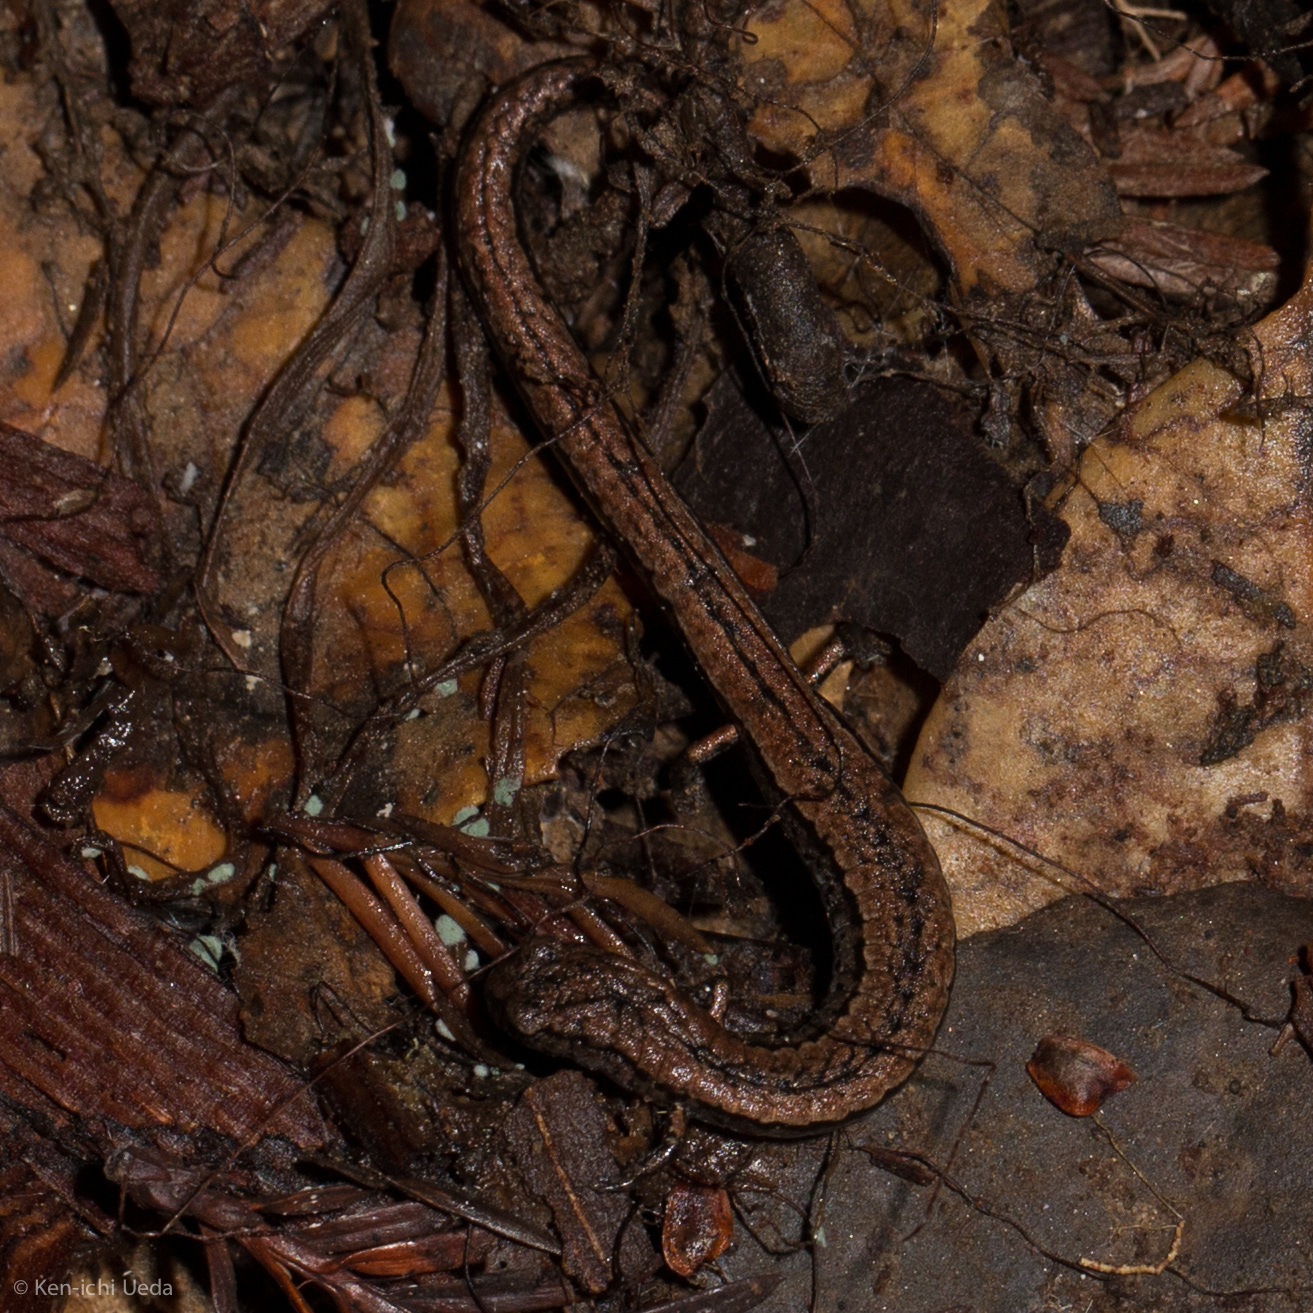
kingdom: Animalia
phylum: Chordata
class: Amphibia
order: Caudata
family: Plethodontidae
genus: Batrachoseps
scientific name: Batrachoseps attenuatus
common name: California slender salamander
